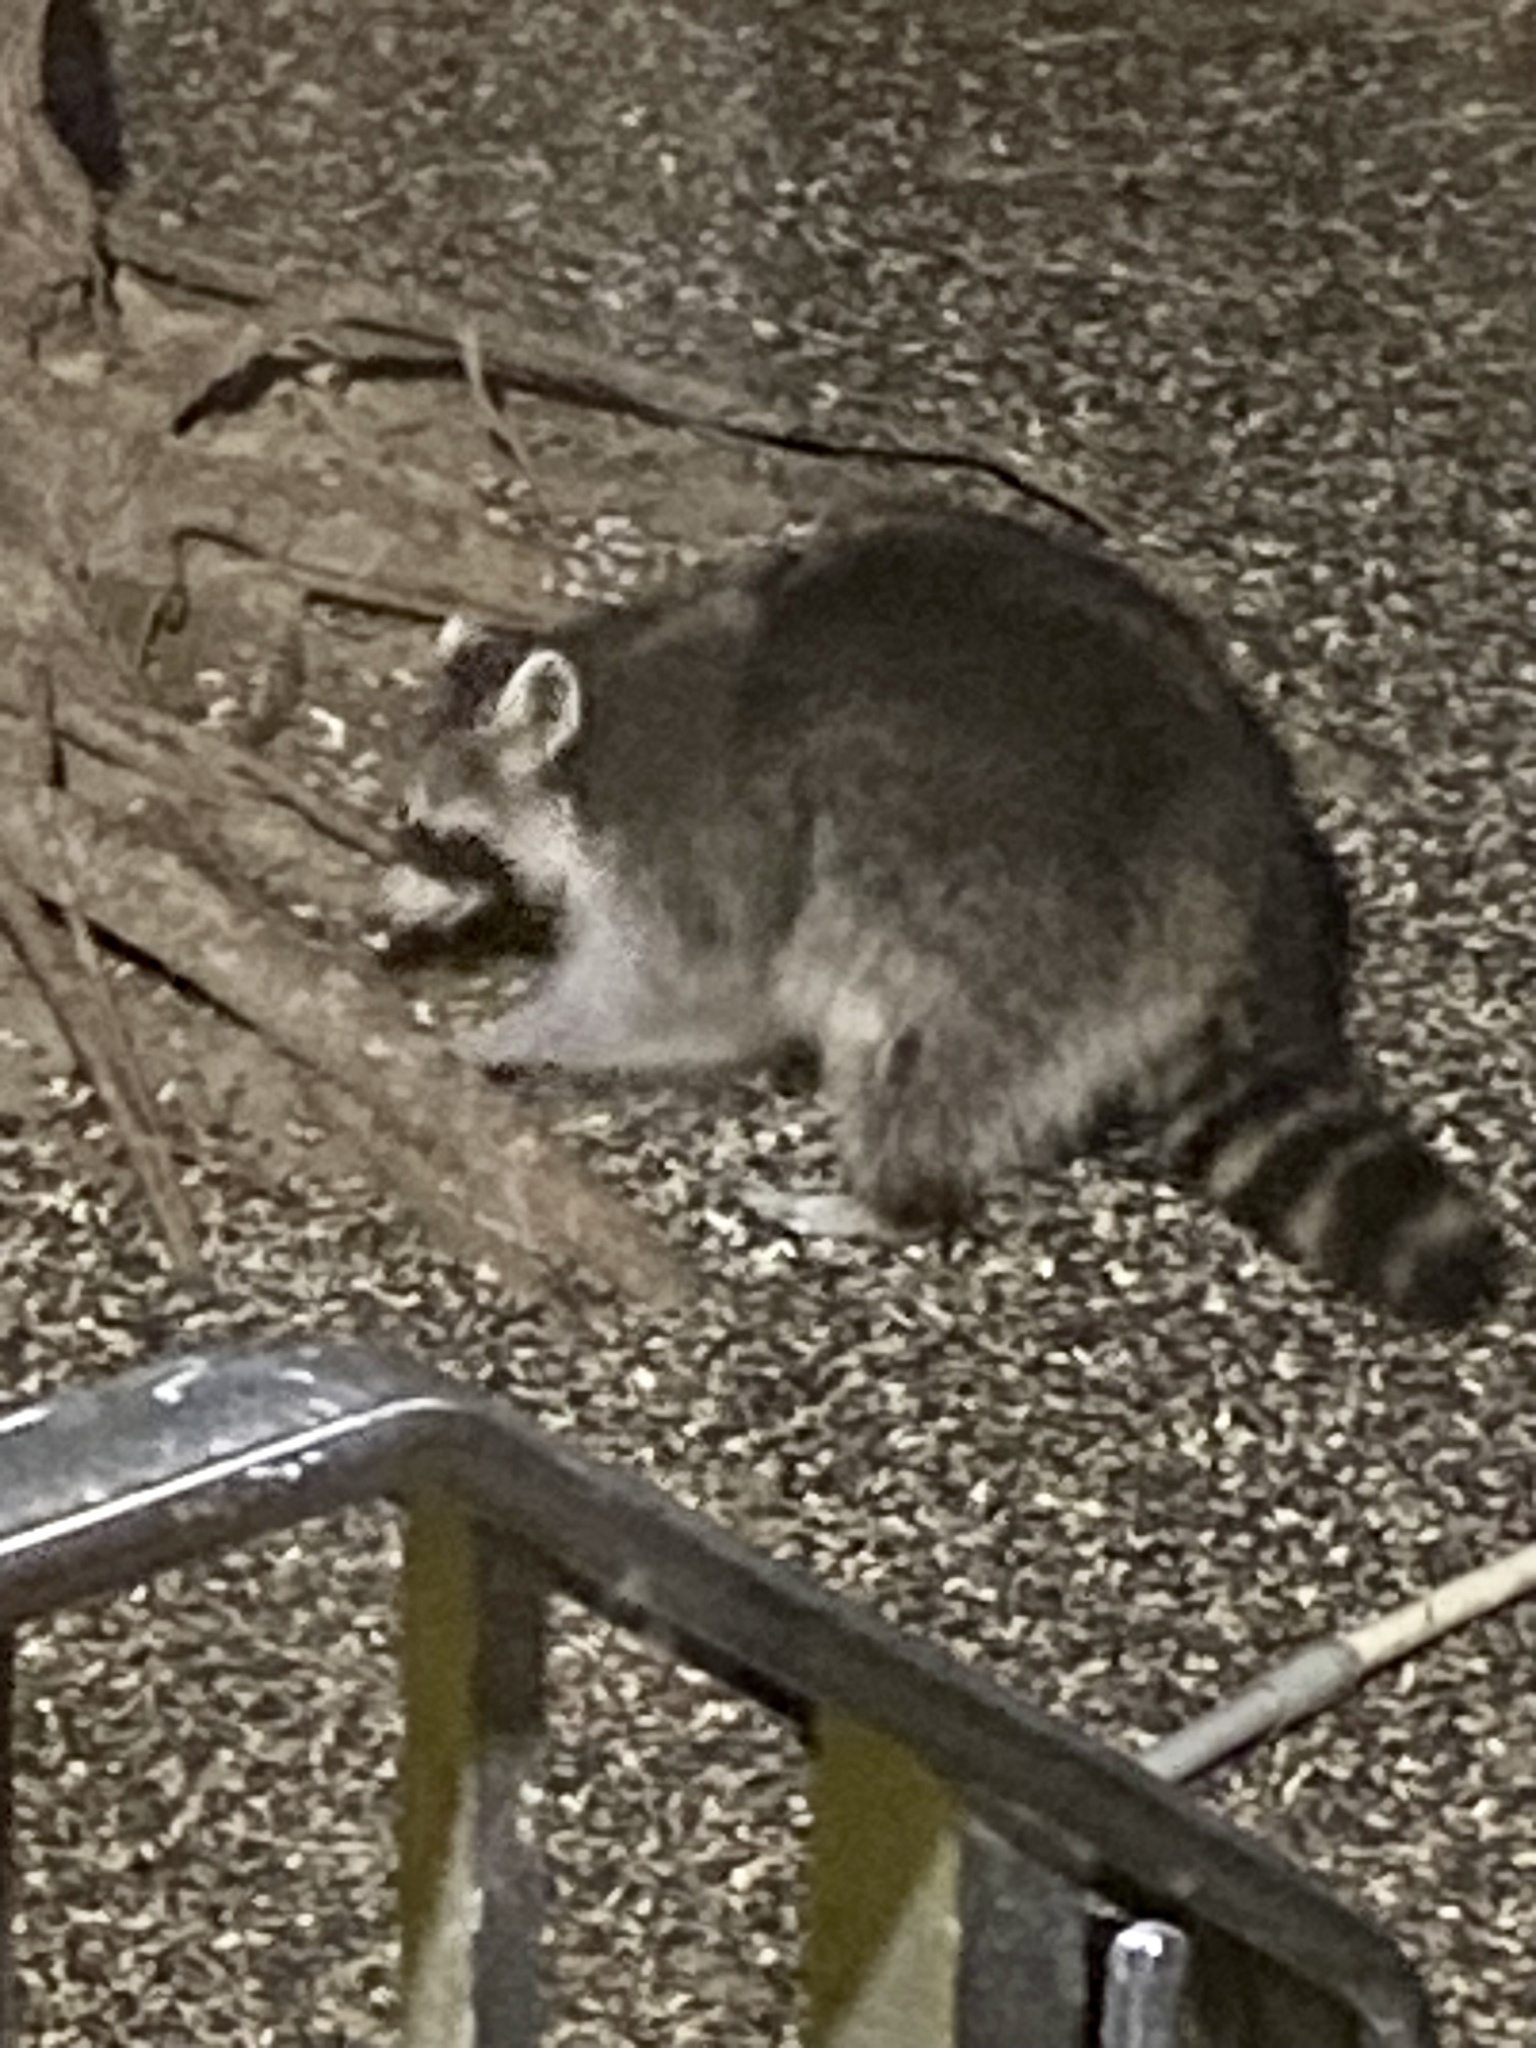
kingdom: Animalia
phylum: Chordata
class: Mammalia
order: Carnivora
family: Procyonidae
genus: Procyon
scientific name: Procyon lotor
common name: Raccoon
